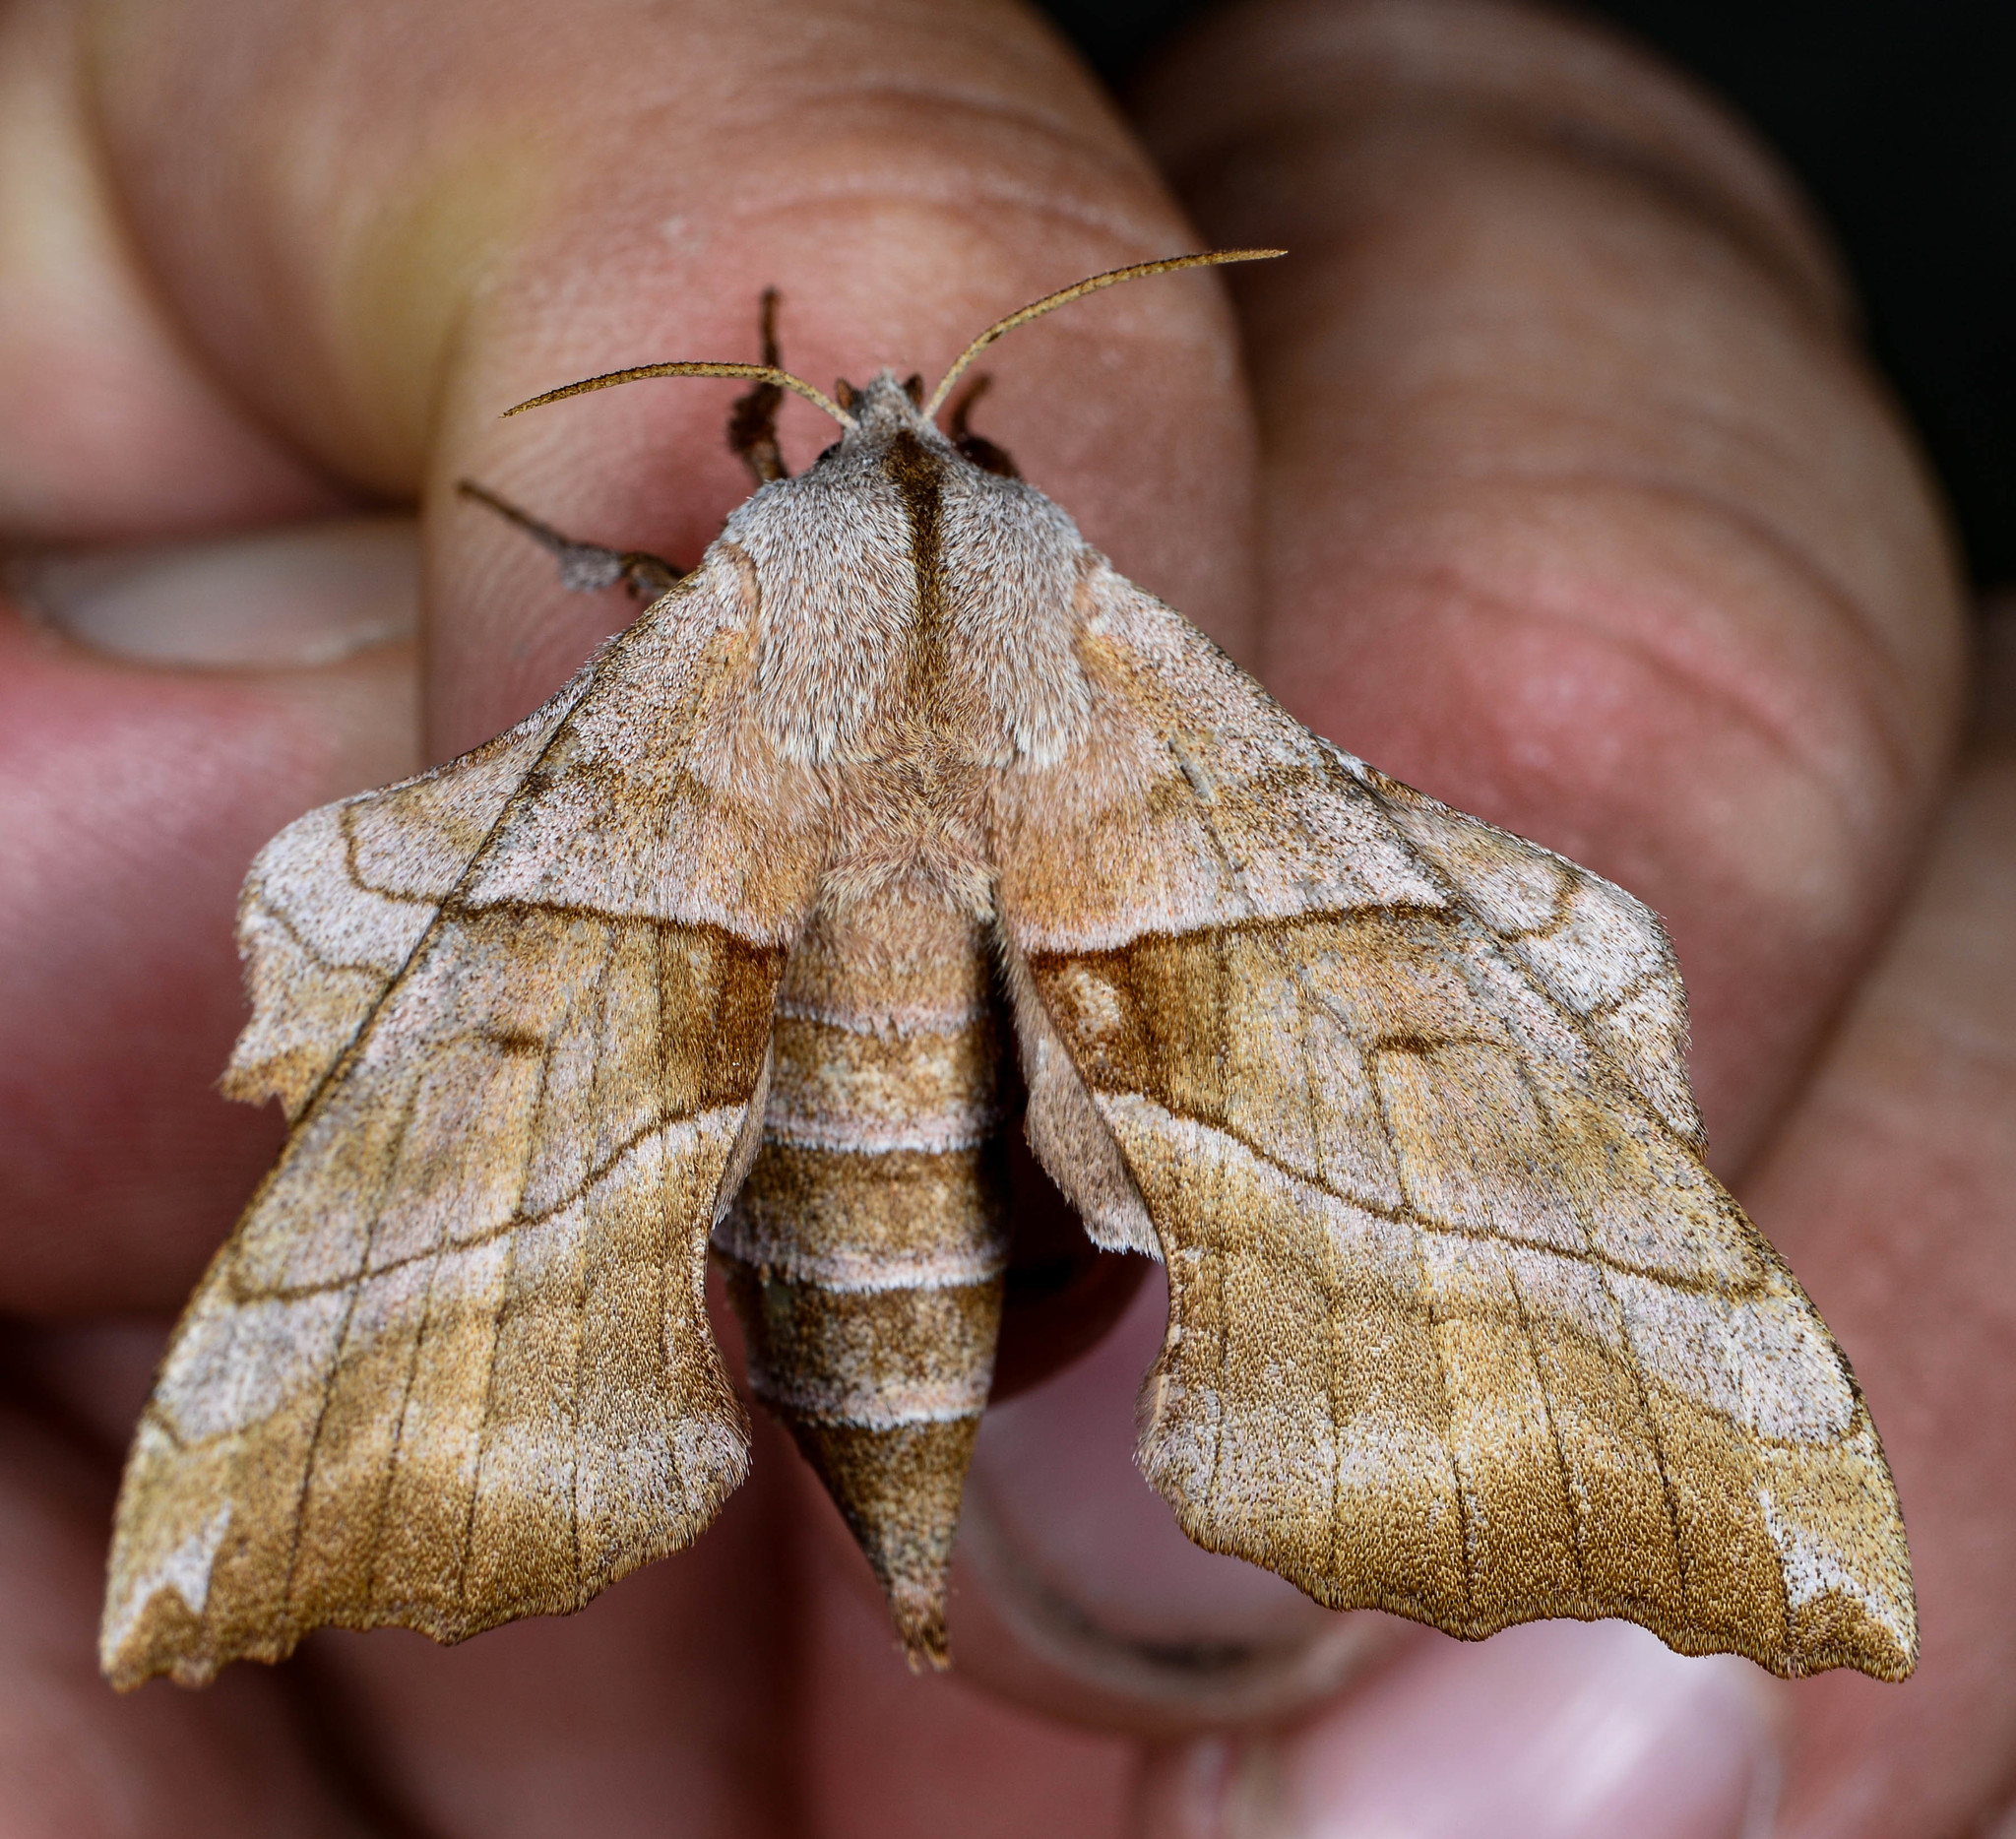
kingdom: Animalia
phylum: Arthropoda
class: Insecta
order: Lepidoptera
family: Sphingidae
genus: Amorpha
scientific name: Amorpha juglandis
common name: Walnut sphinx
